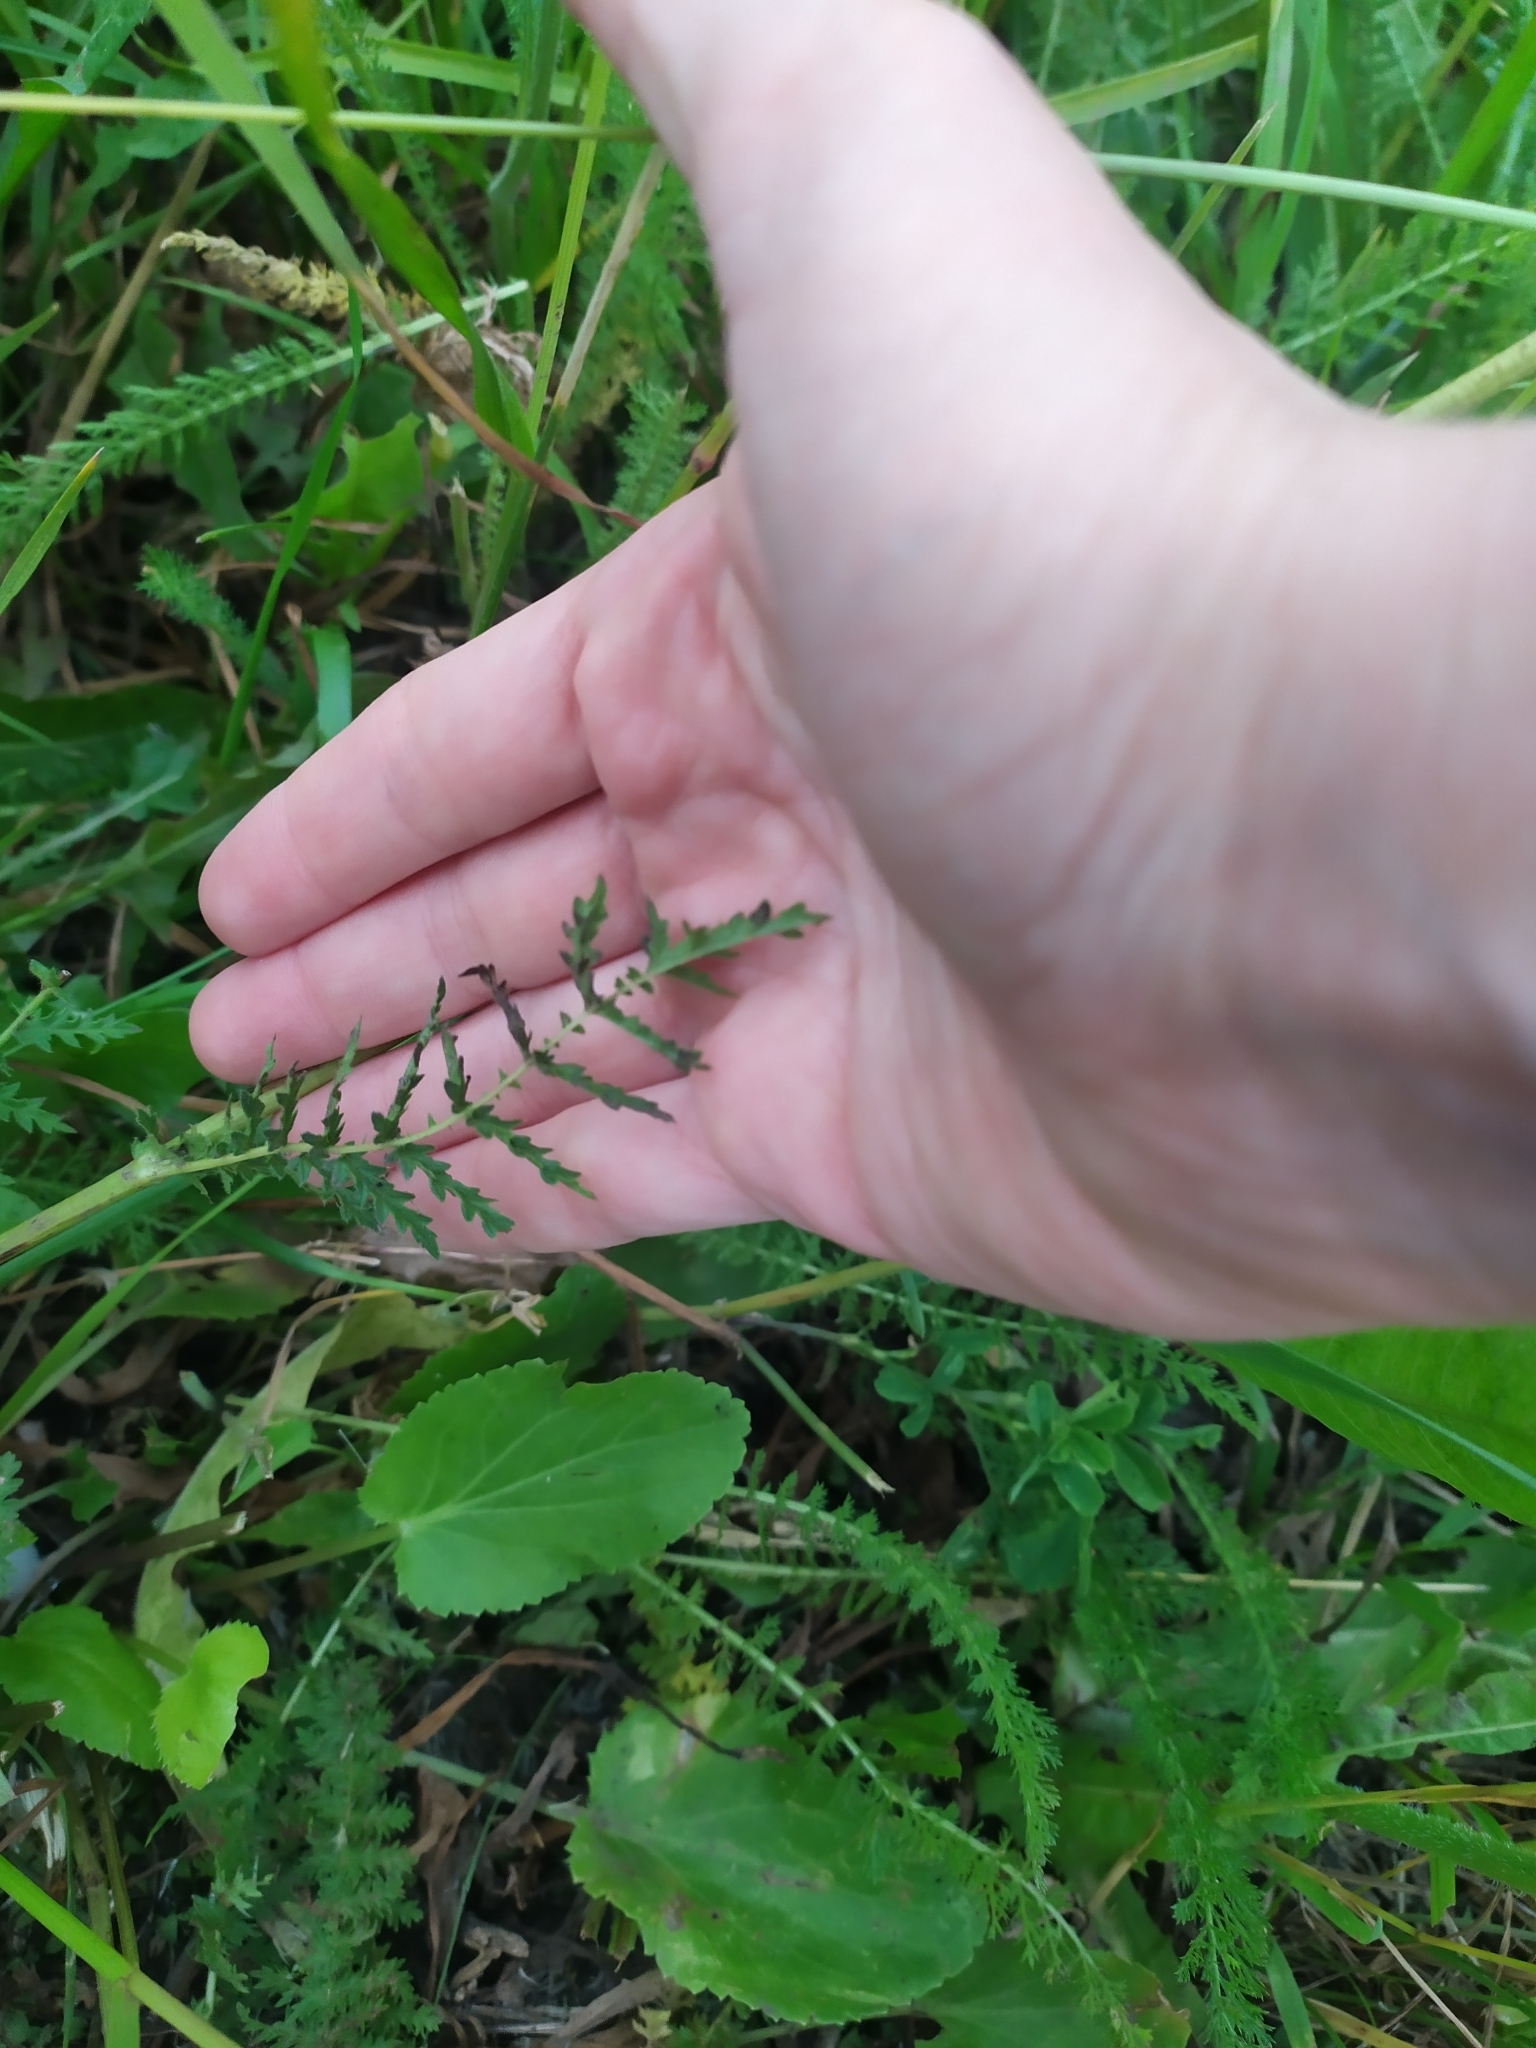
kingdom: Plantae
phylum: Tracheophyta
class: Magnoliopsida
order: Rosales
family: Rosaceae
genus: Filipendula
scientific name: Filipendula vulgaris
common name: Dropwort
